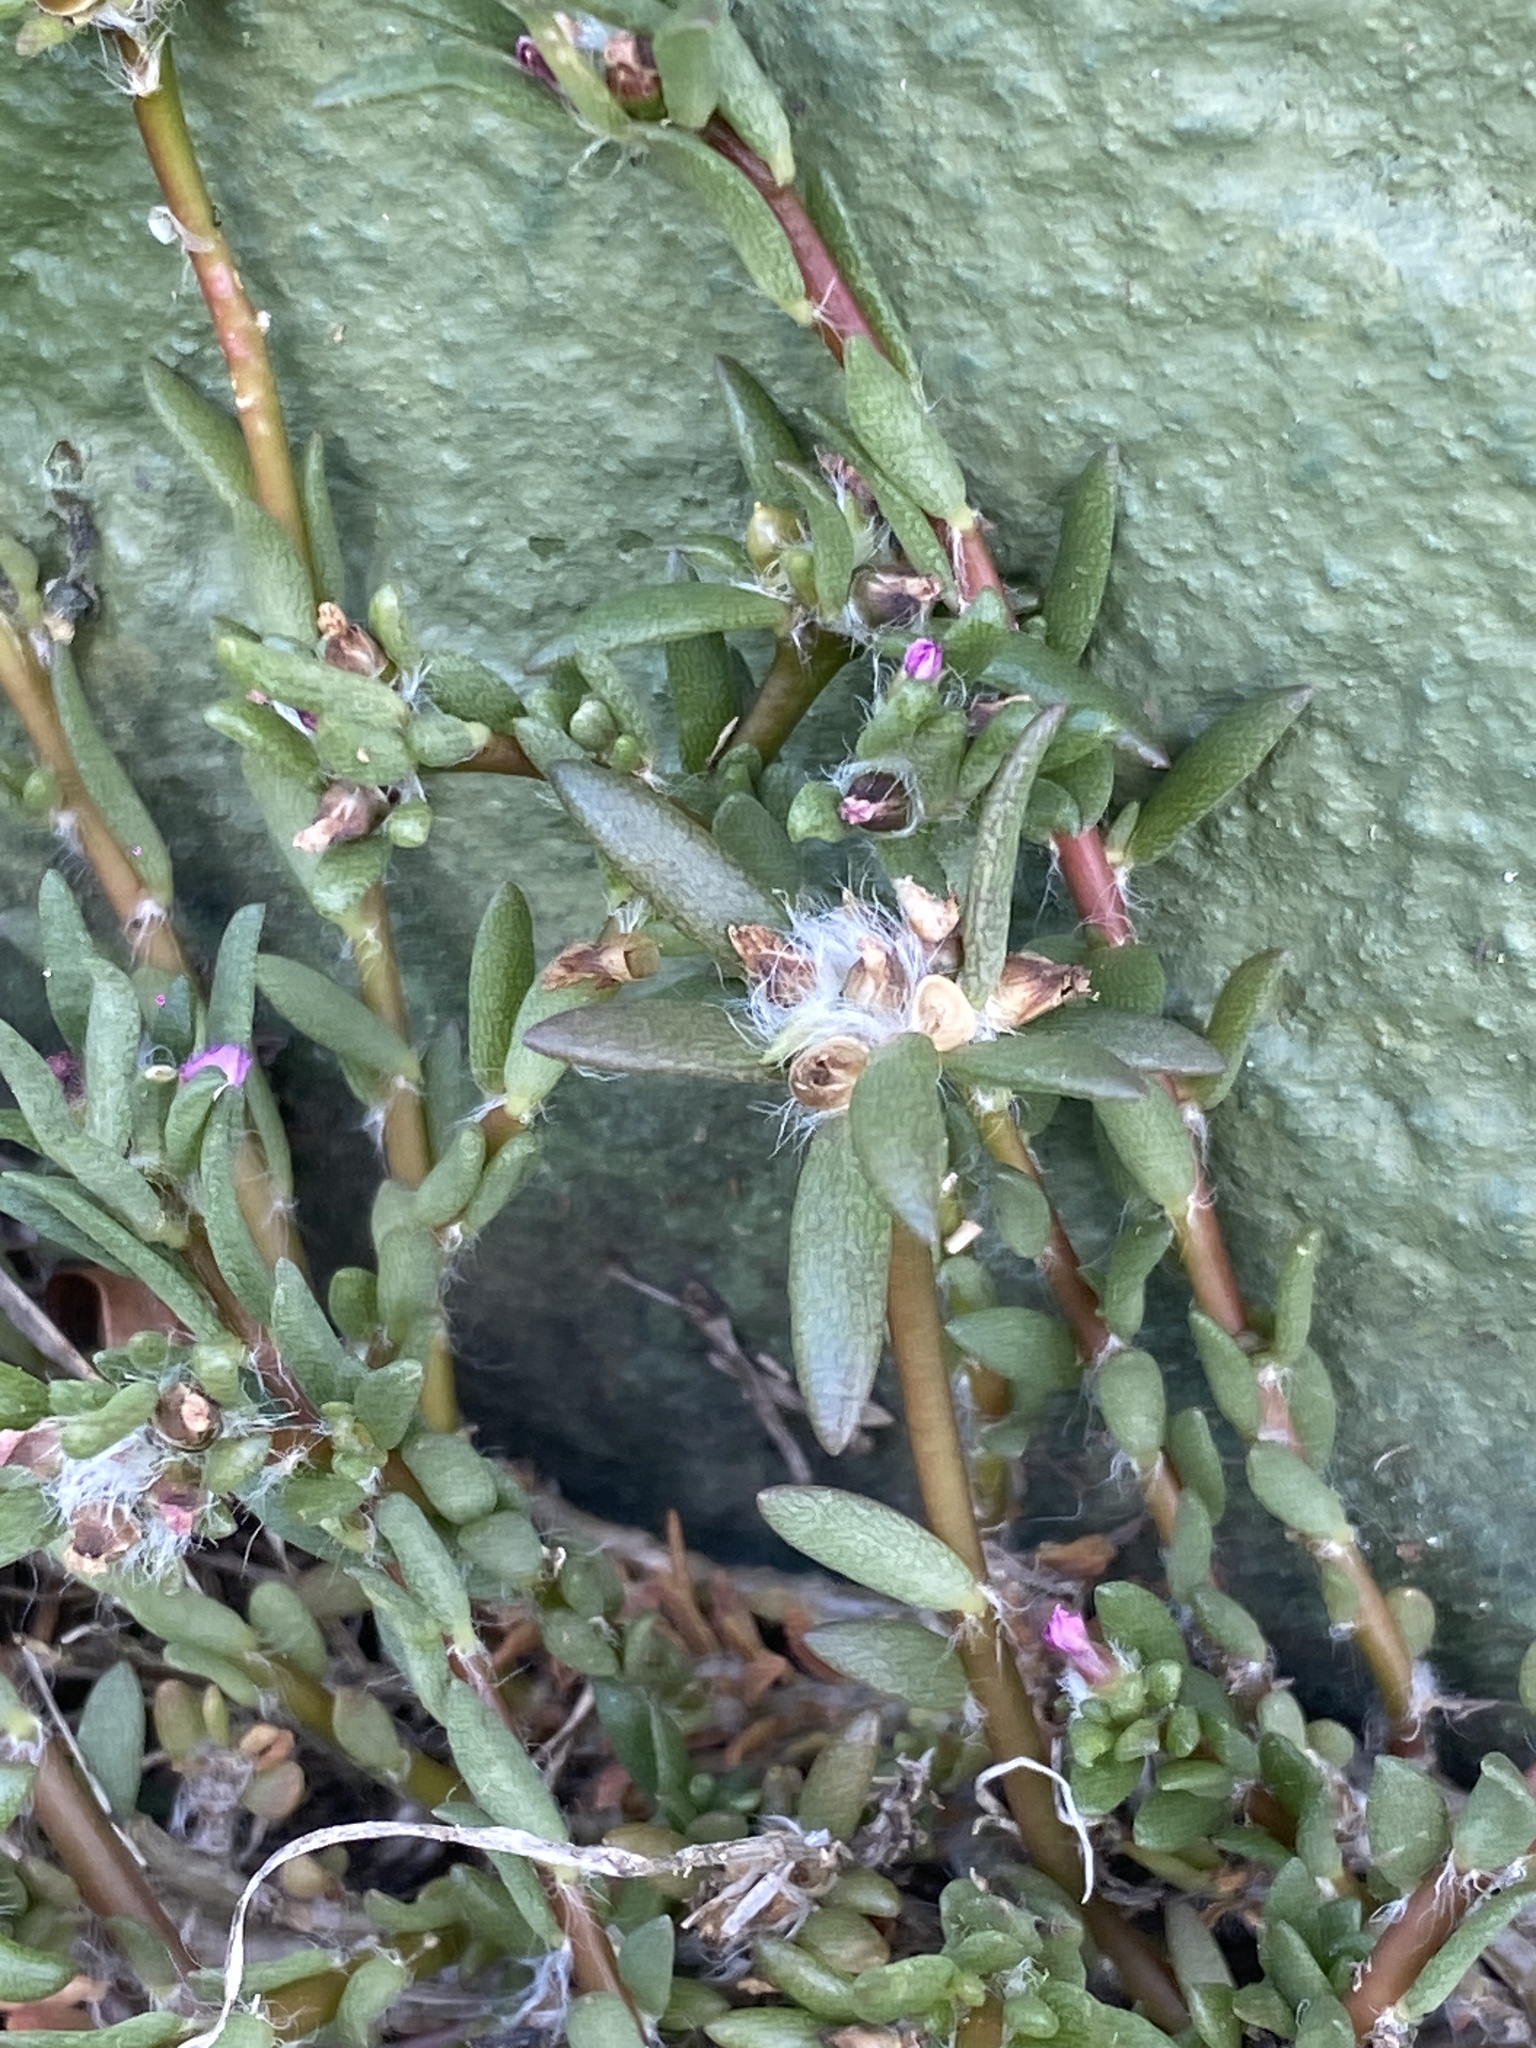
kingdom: Plantae
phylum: Tracheophyta
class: Magnoliopsida
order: Caryophyllales
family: Portulacaceae
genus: Portulaca
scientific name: Portulaca pilosa
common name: Kiss me quick
